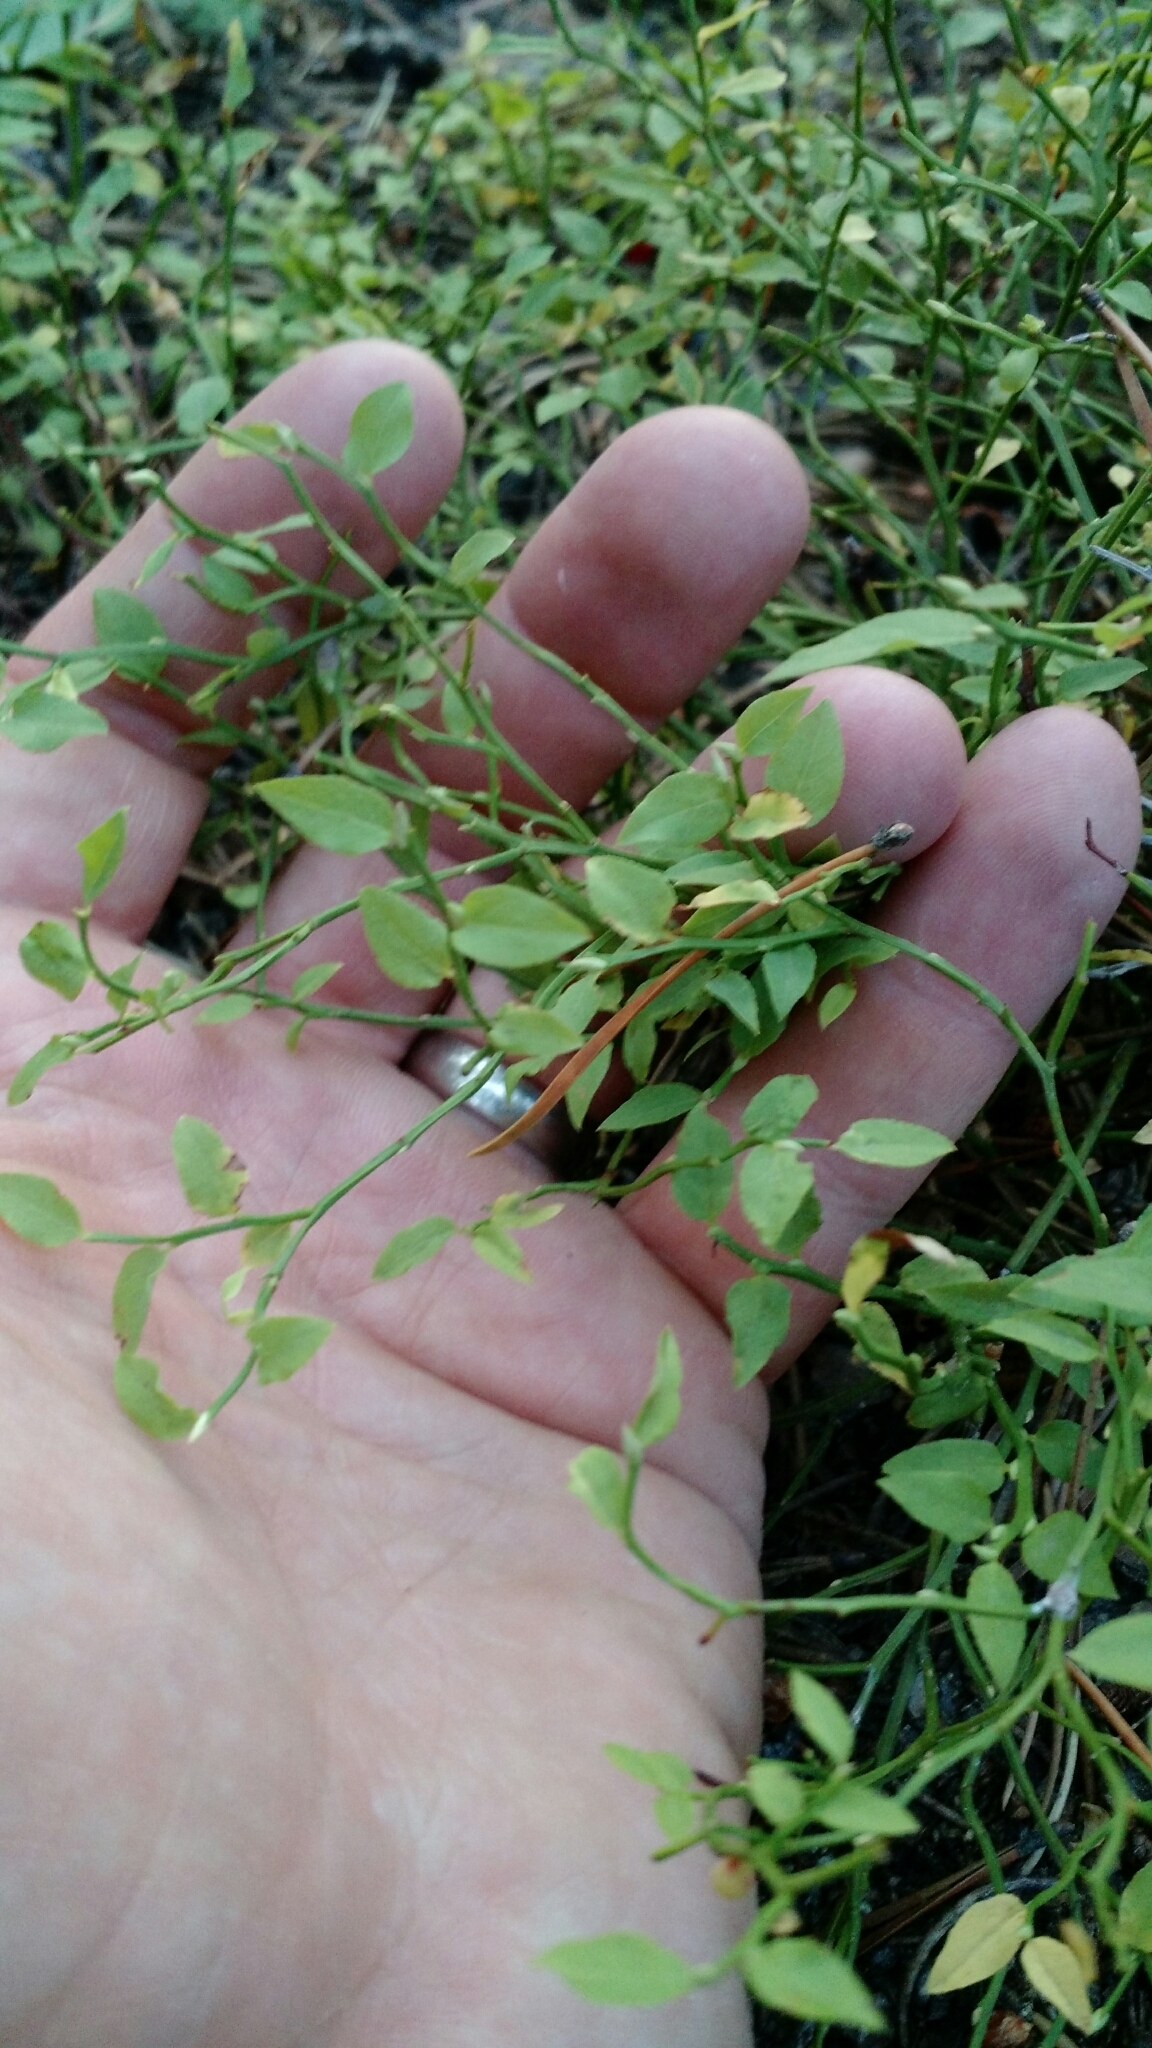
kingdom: Plantae
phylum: Tracheophyta
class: Magnoliopsida
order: Ericales
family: Ericaceae
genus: Vaccinium
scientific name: Vaccinium scoparium
